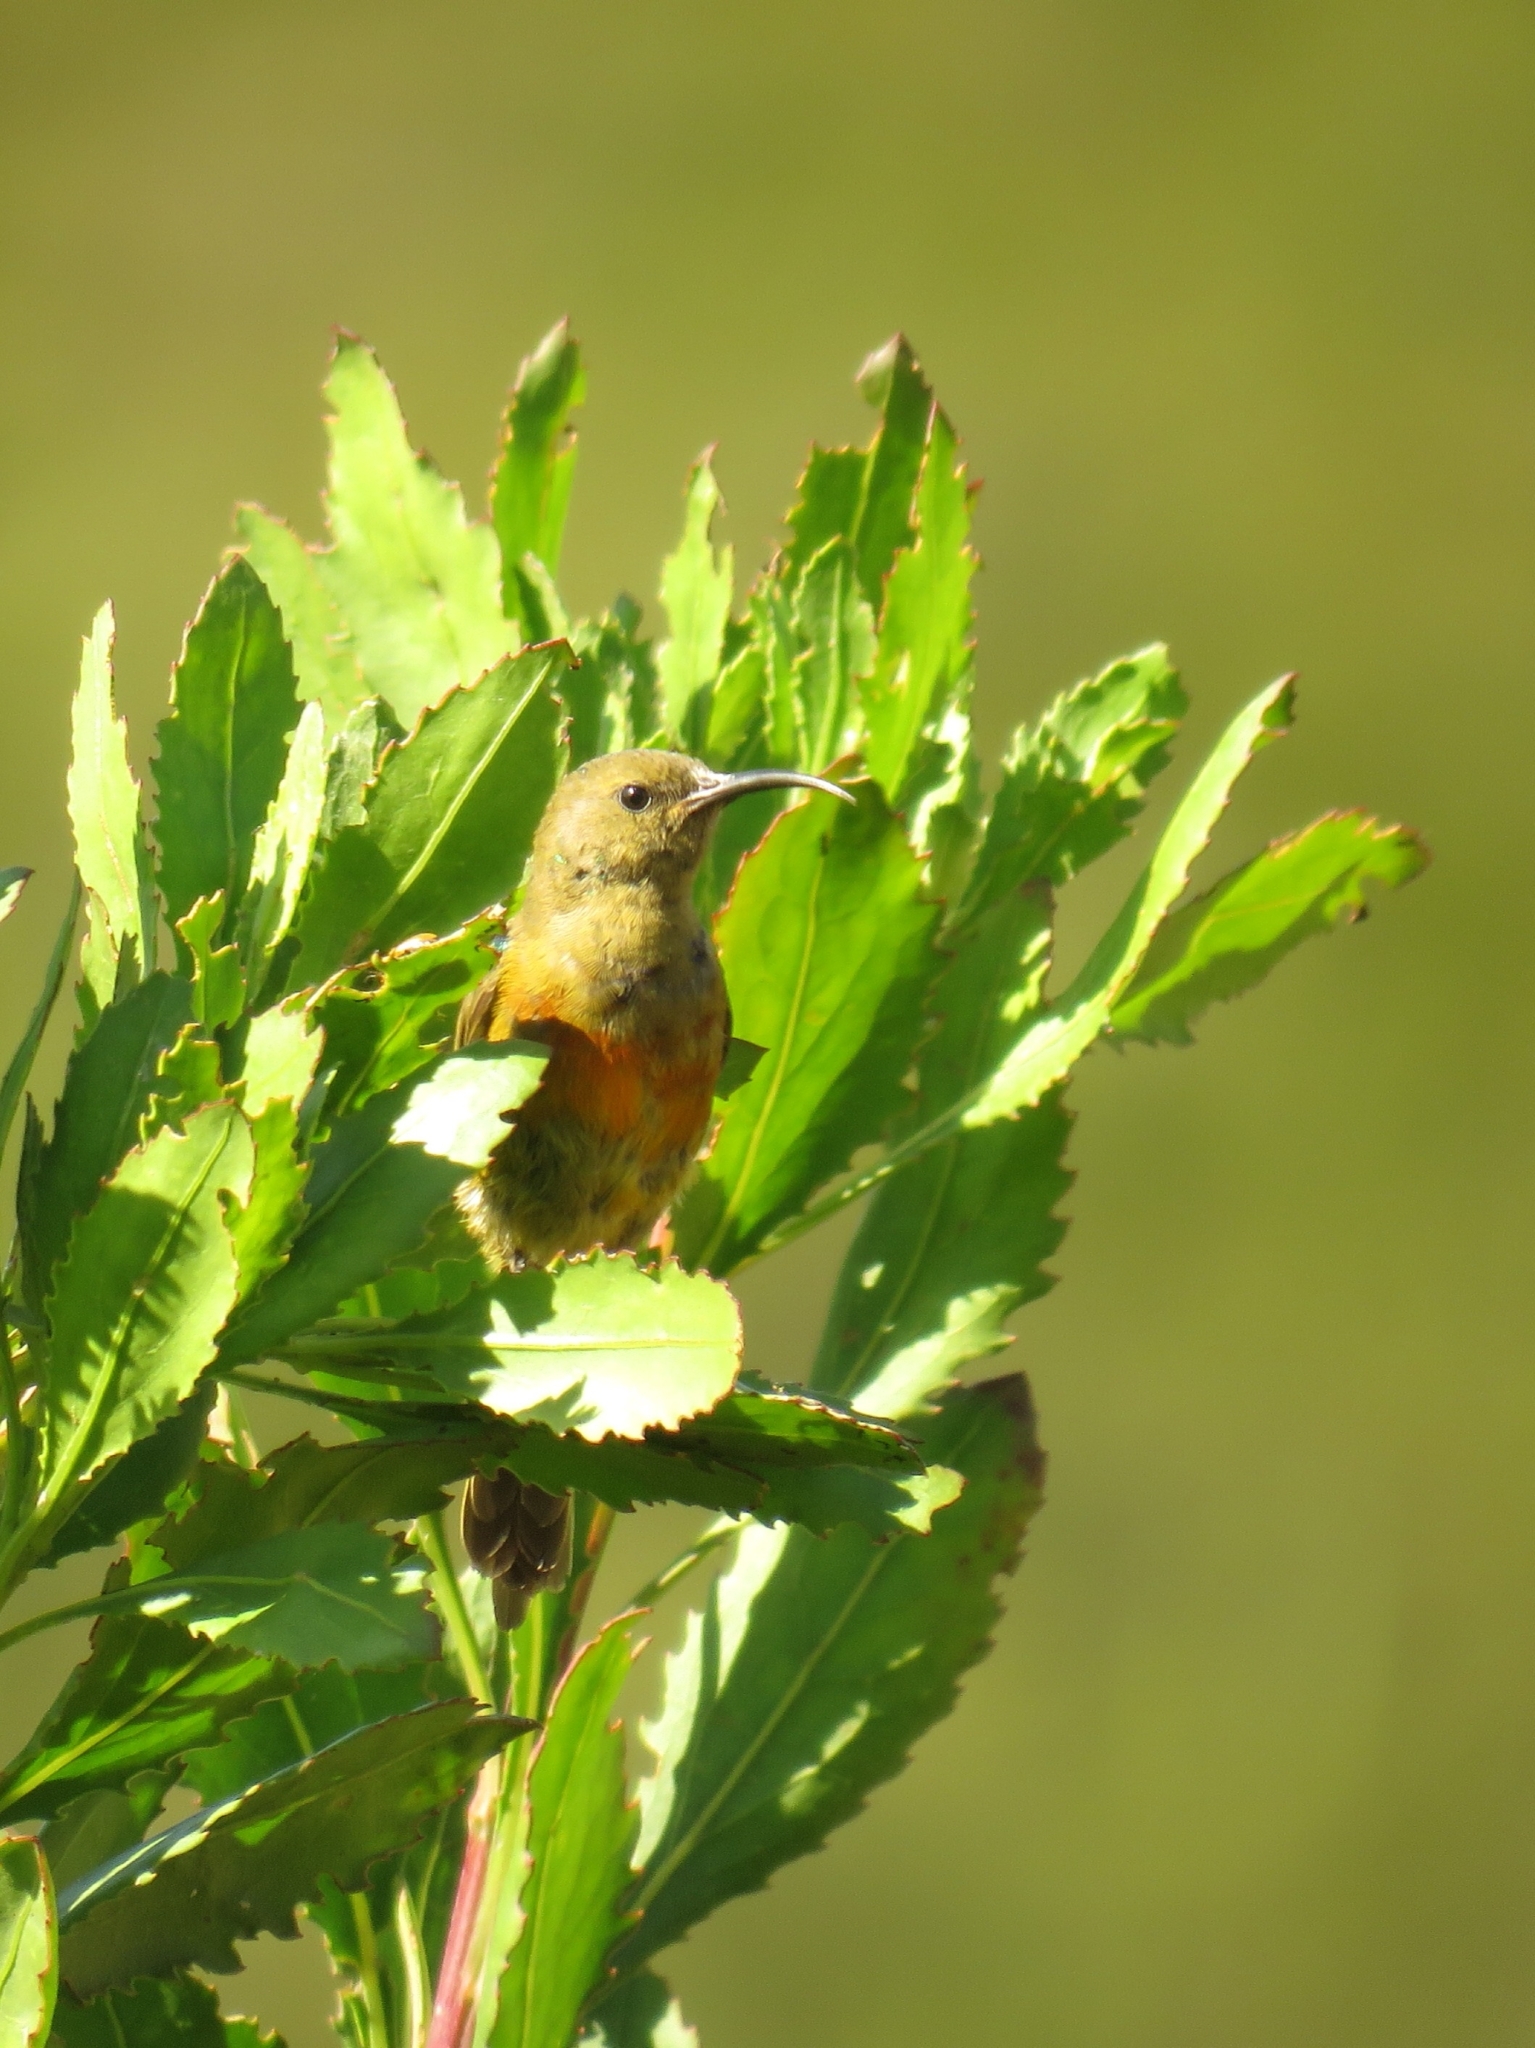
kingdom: Animalia
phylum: Chordata
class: Aves
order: Passeriformes
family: Nectariniidae
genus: Anthobaphes
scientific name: Anthobaphes violacea
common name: Orange-breasted sunbird
